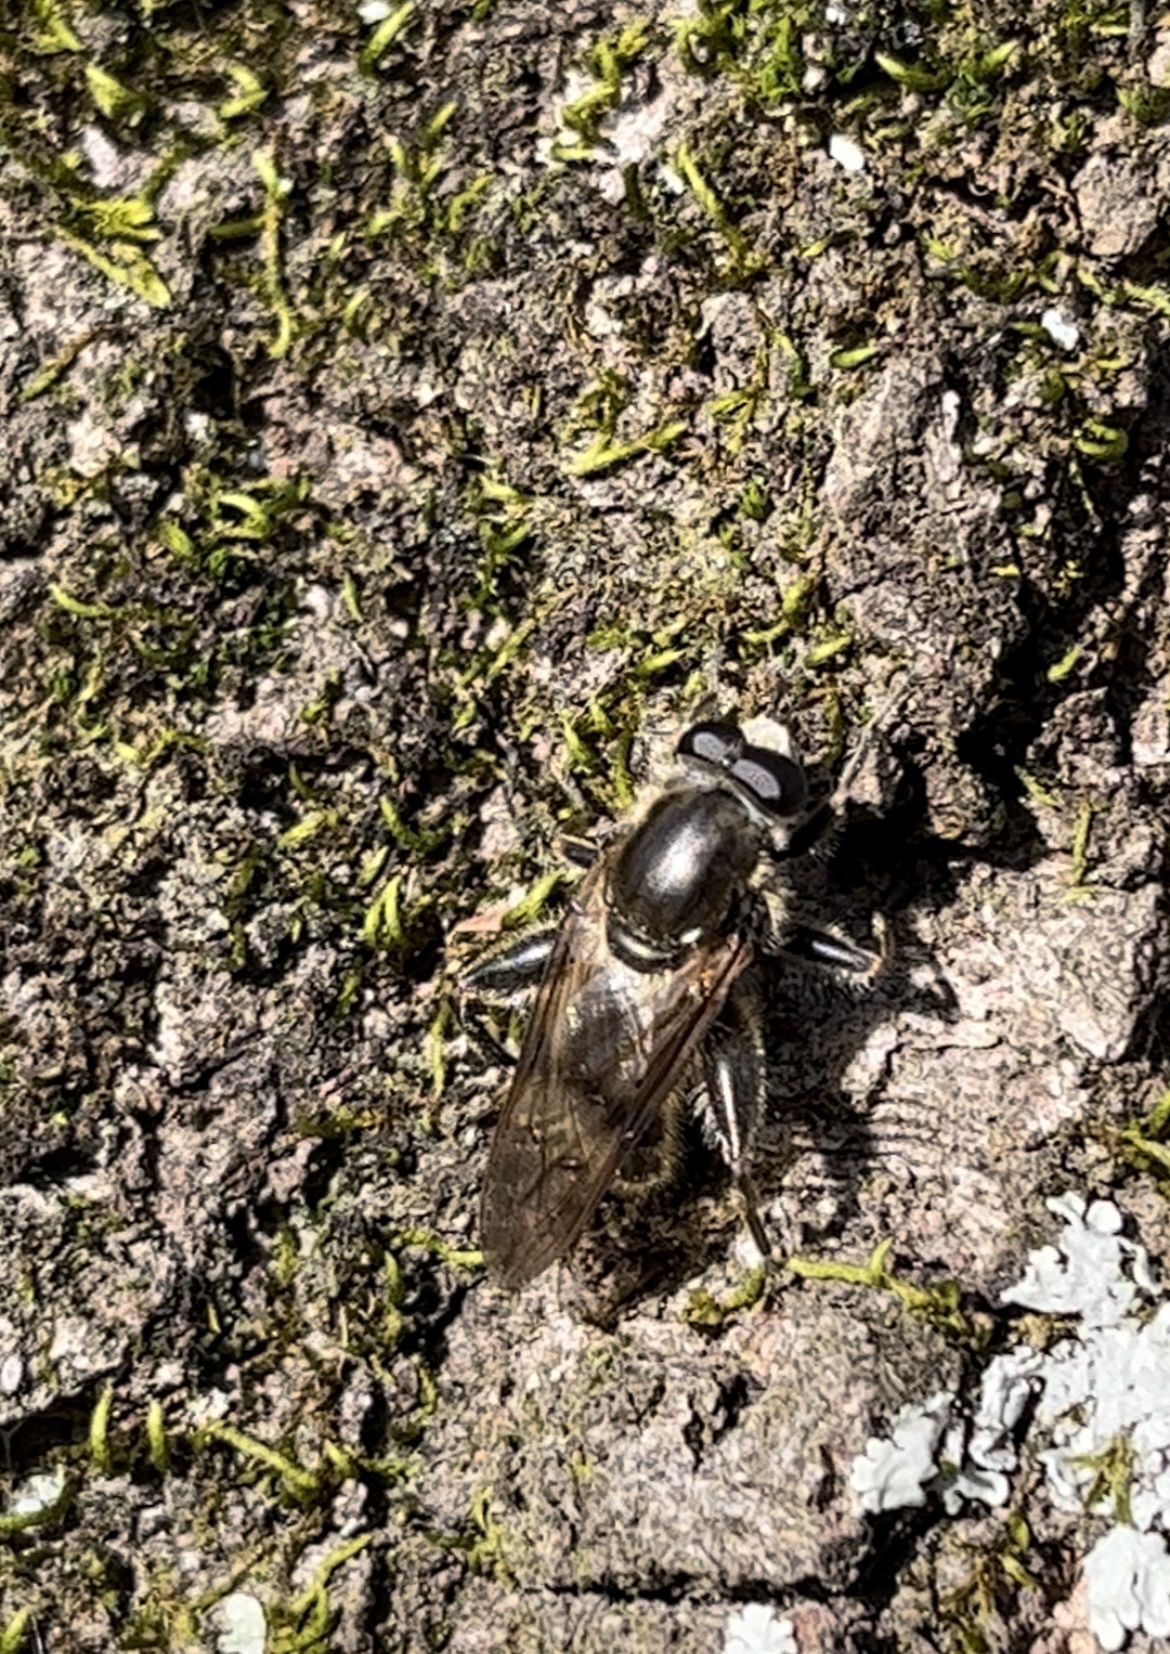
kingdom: Animalia
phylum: Arthropoda
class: Insecta
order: Diptera
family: Syrphidae
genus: Brachypalpus
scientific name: Brachypalpus oarus
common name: Eastern catkin fly
